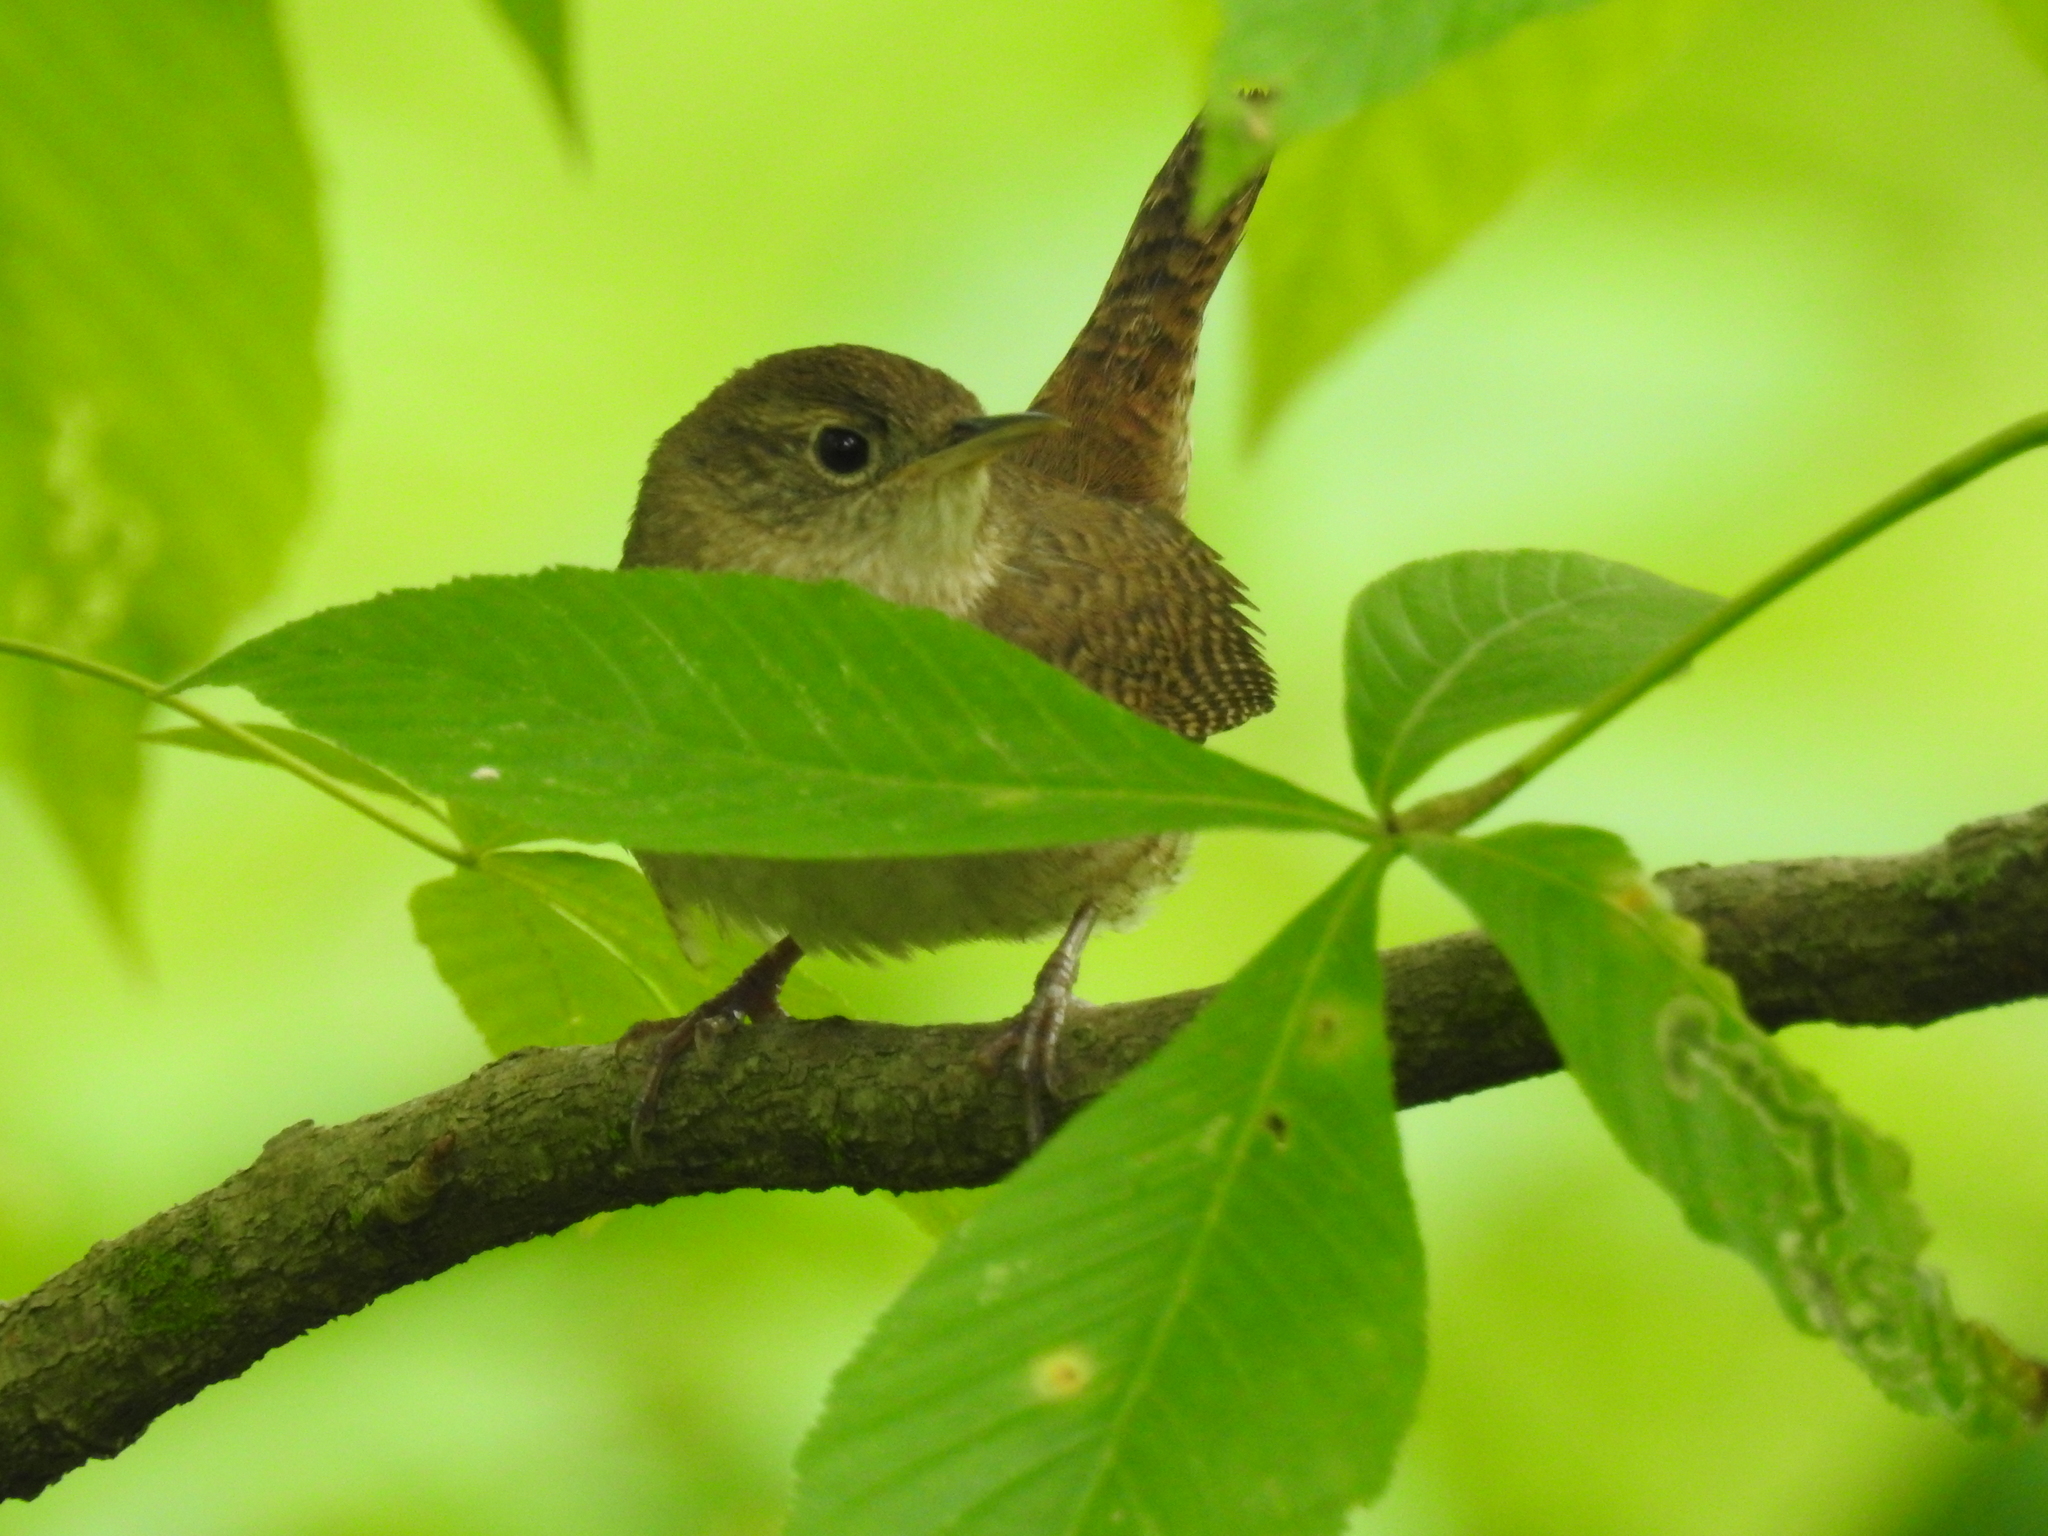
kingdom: Animalia
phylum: Chordata
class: Aves
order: Passeriformes
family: Troglodytidae
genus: Troglodytes
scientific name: Troglodytes aedon
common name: House wren
